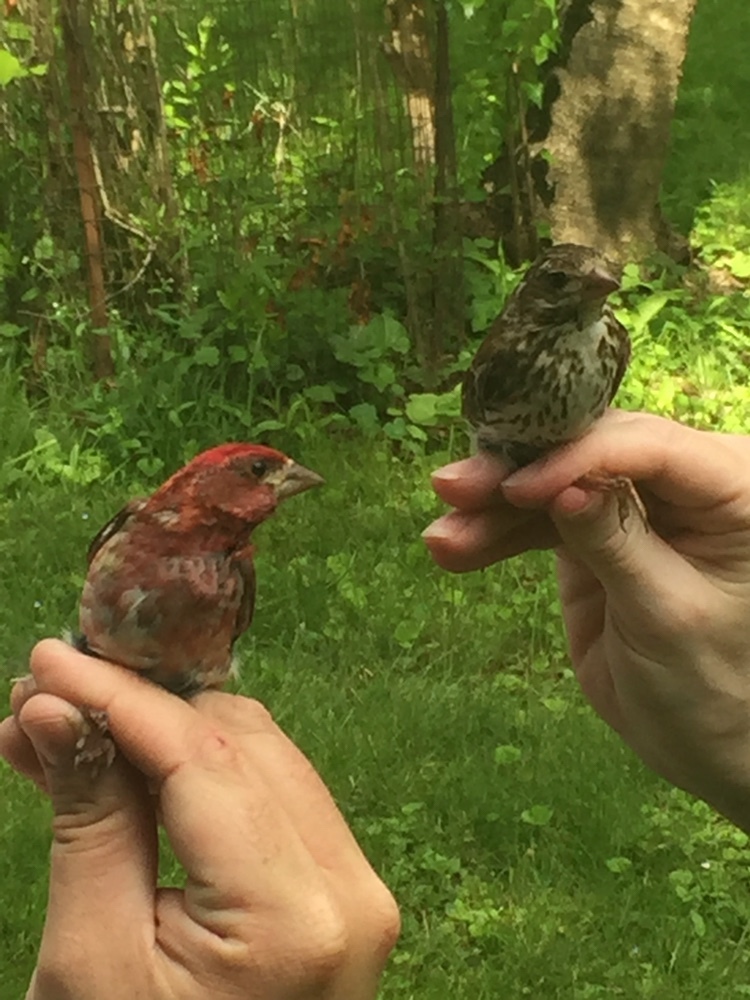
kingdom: Animalia
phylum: Chordata
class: Aves
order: Passeriformes
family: Fringillidae
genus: Haemorhous
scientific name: Haemorhous purpureus
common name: Purple finch
